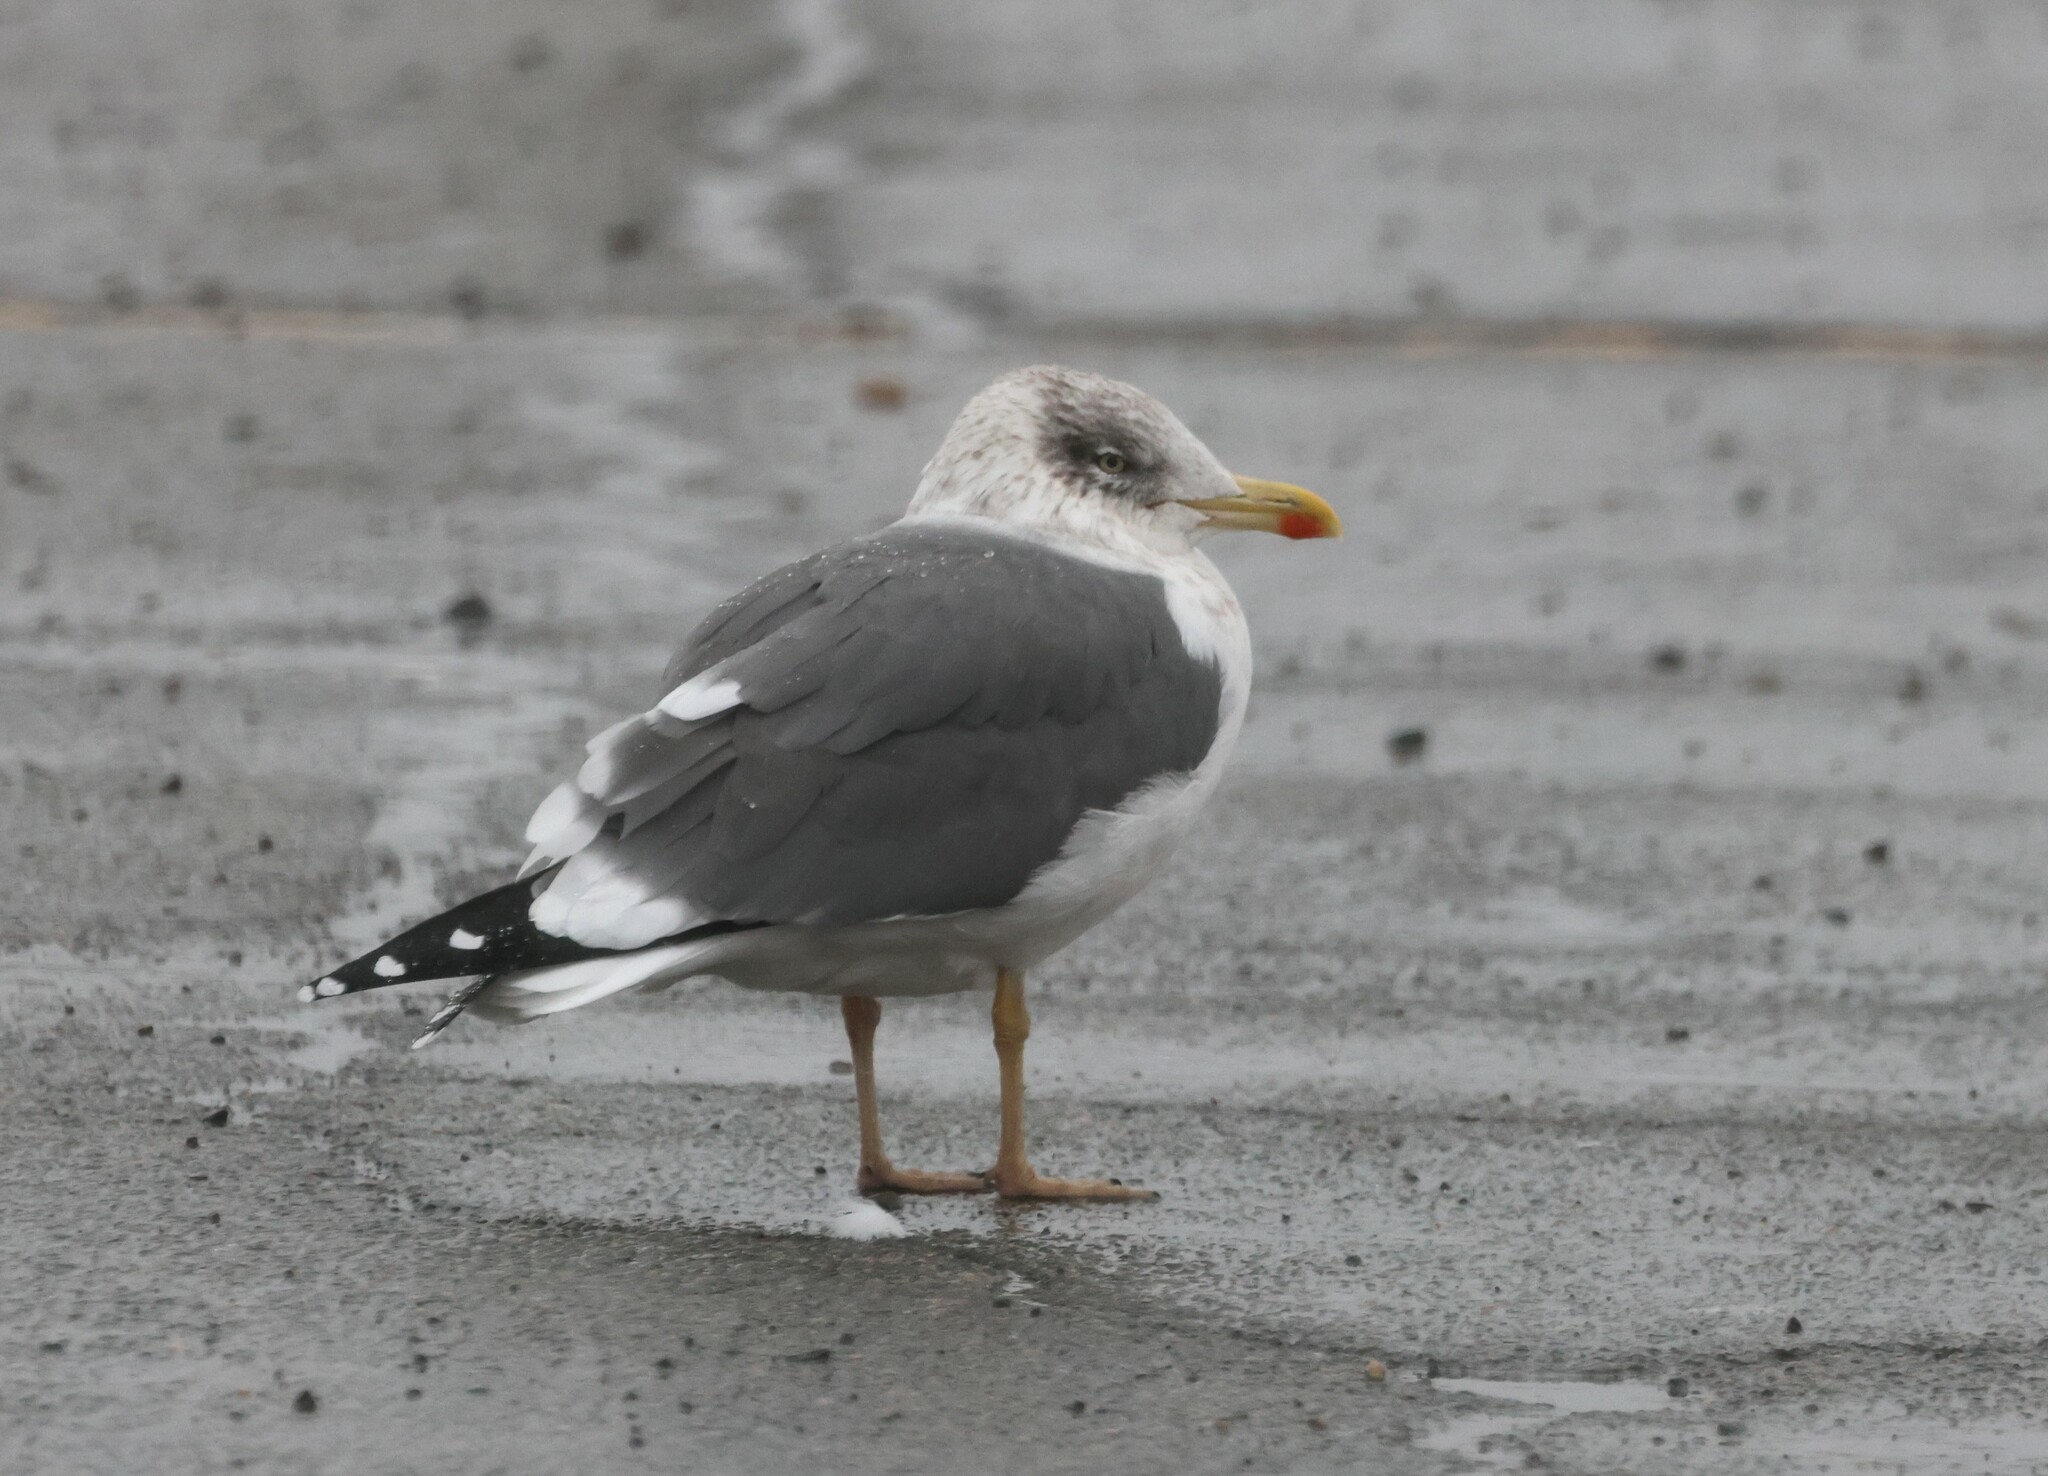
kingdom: Animalia
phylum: Chordata
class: Aves
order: Charadriiformes
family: Laridae
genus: Larus
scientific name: Larus fuscus
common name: Lesser black-backed gull
